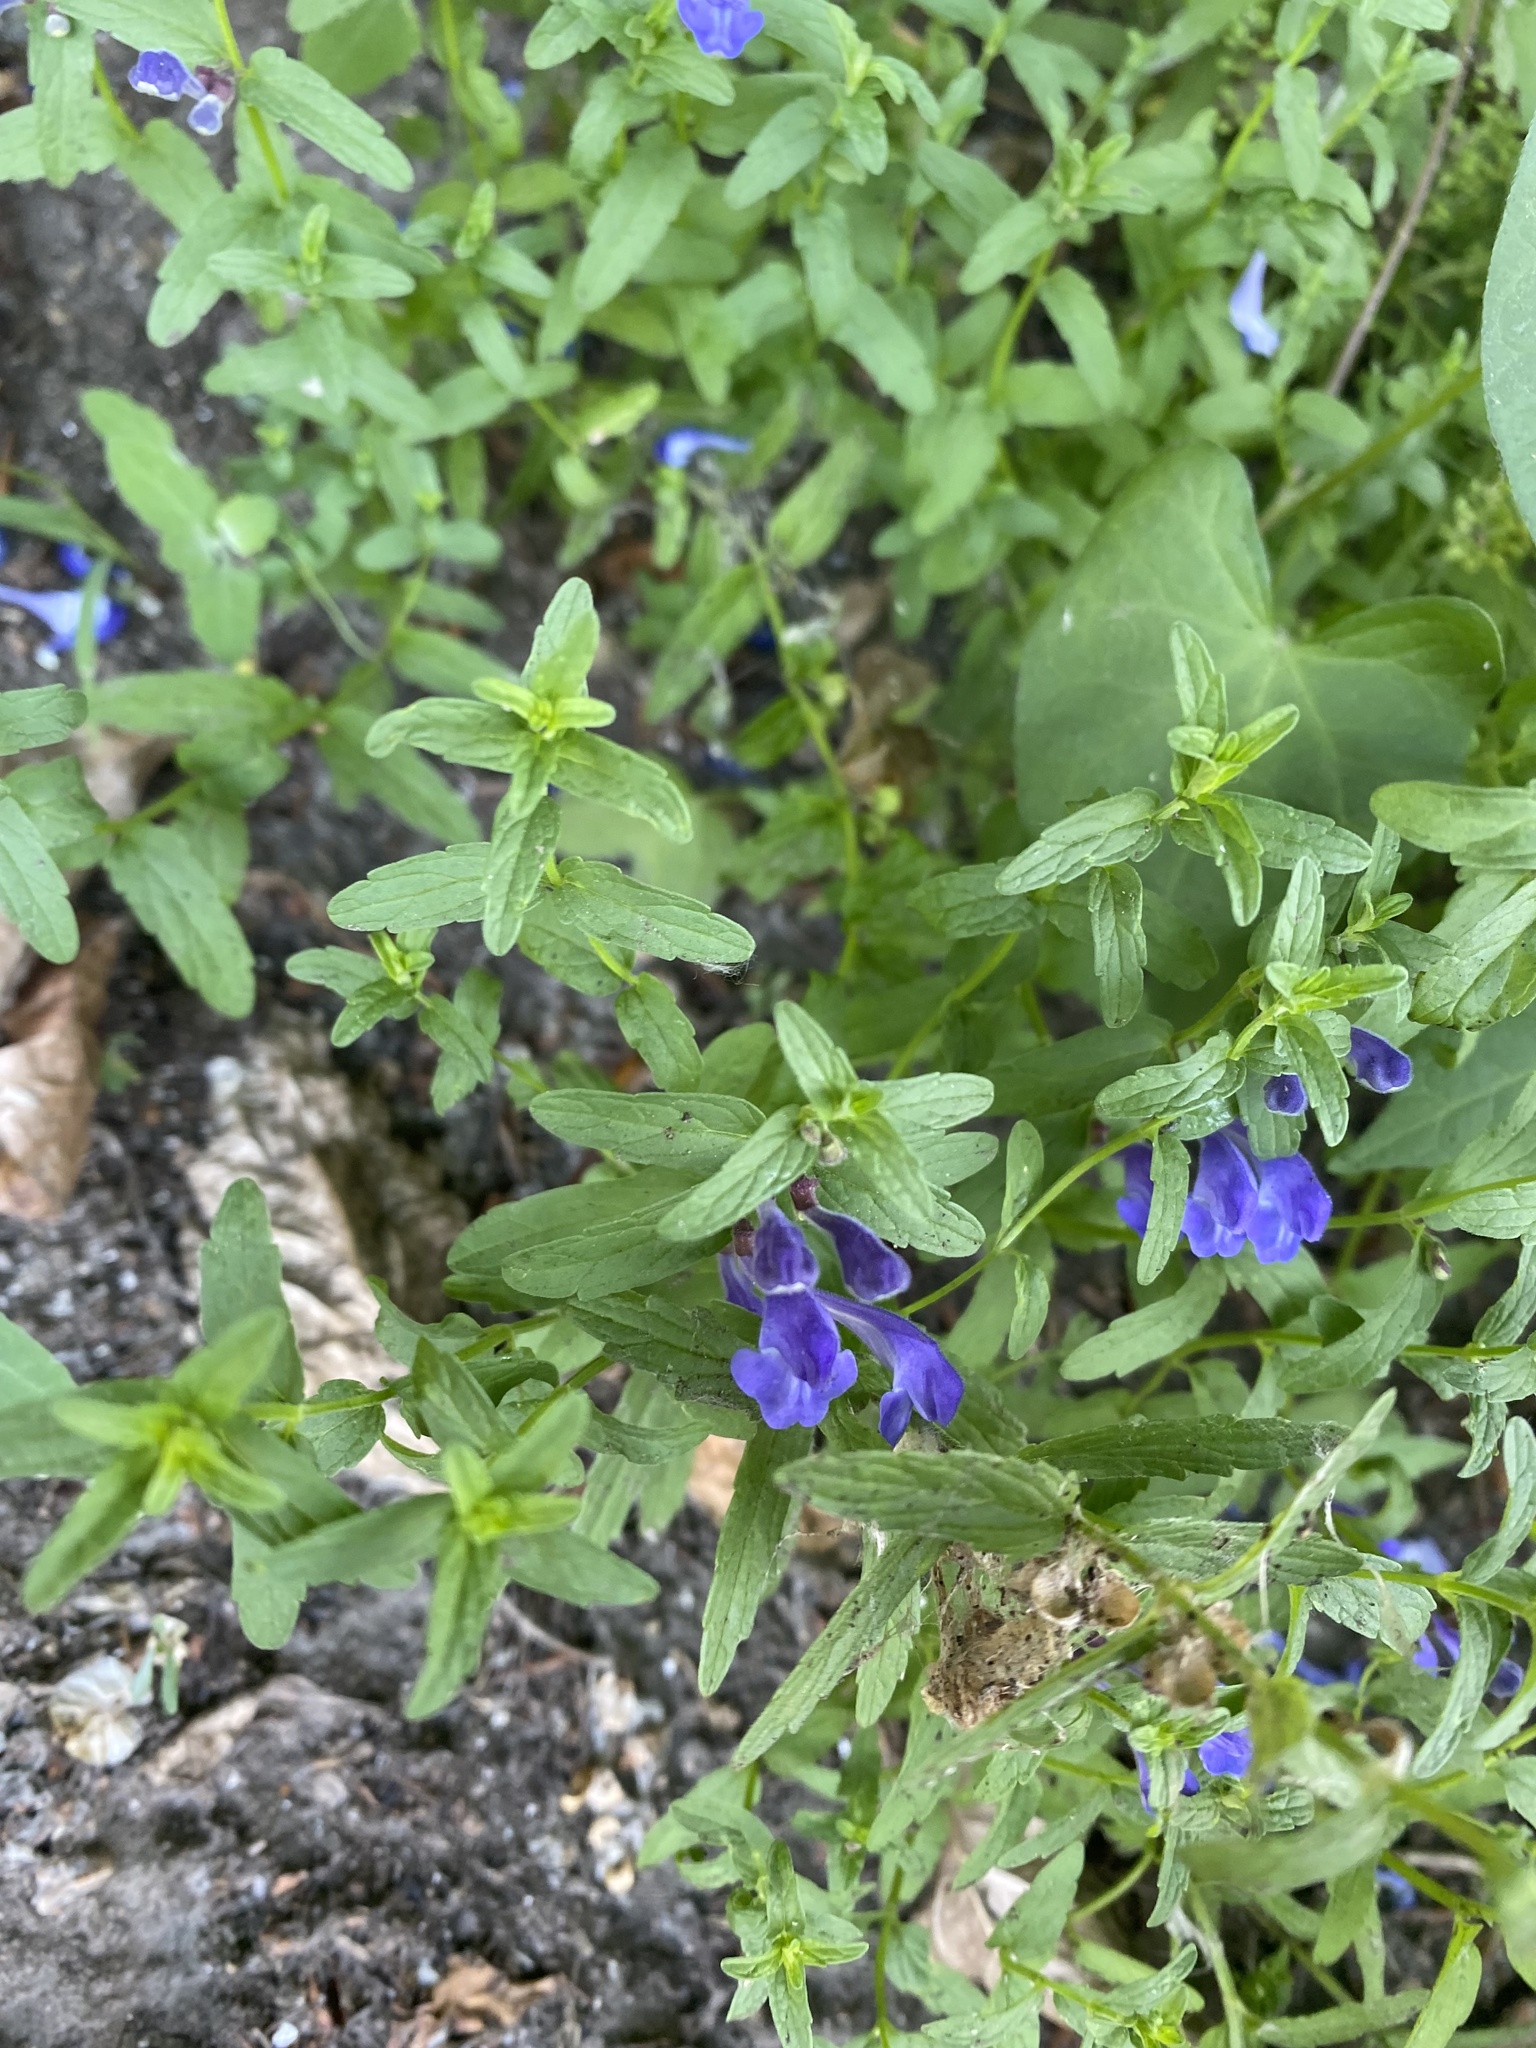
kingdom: Plantae
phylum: Tracheophyta
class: Magnoliopsida
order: Lamiales
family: Lamiaceae
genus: Scutellaria
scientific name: Scutellaria scordiifolia
